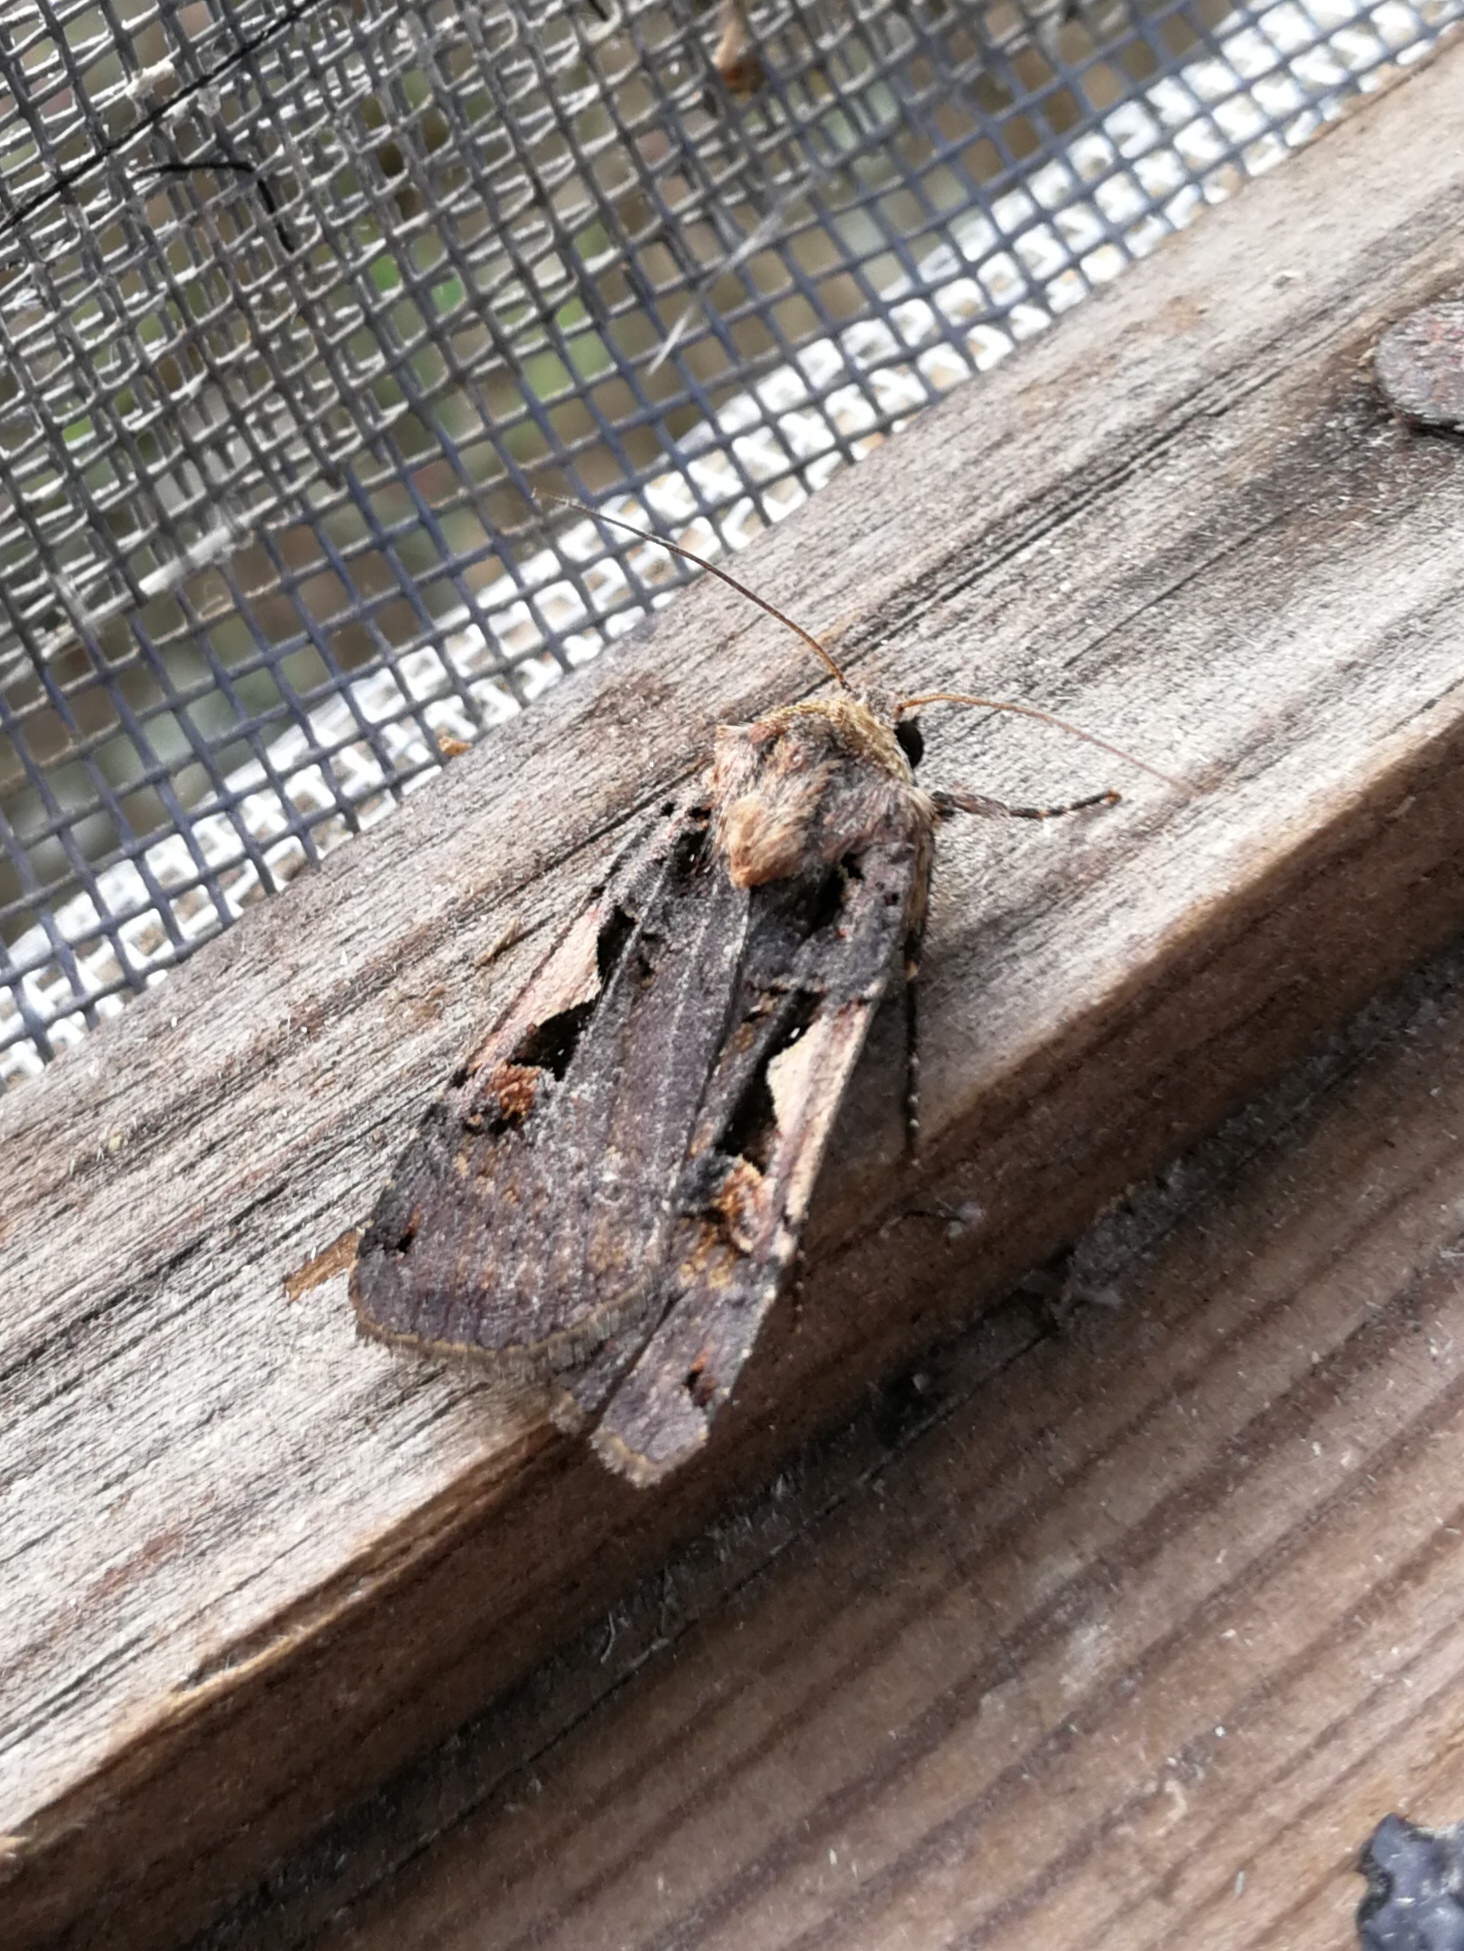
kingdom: Animalia
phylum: Arthropoda
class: Insecta
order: Lepidoptera
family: Noctuidae
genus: Xestia
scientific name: Xestia c-nigrum
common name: Setaceous hebrew character
